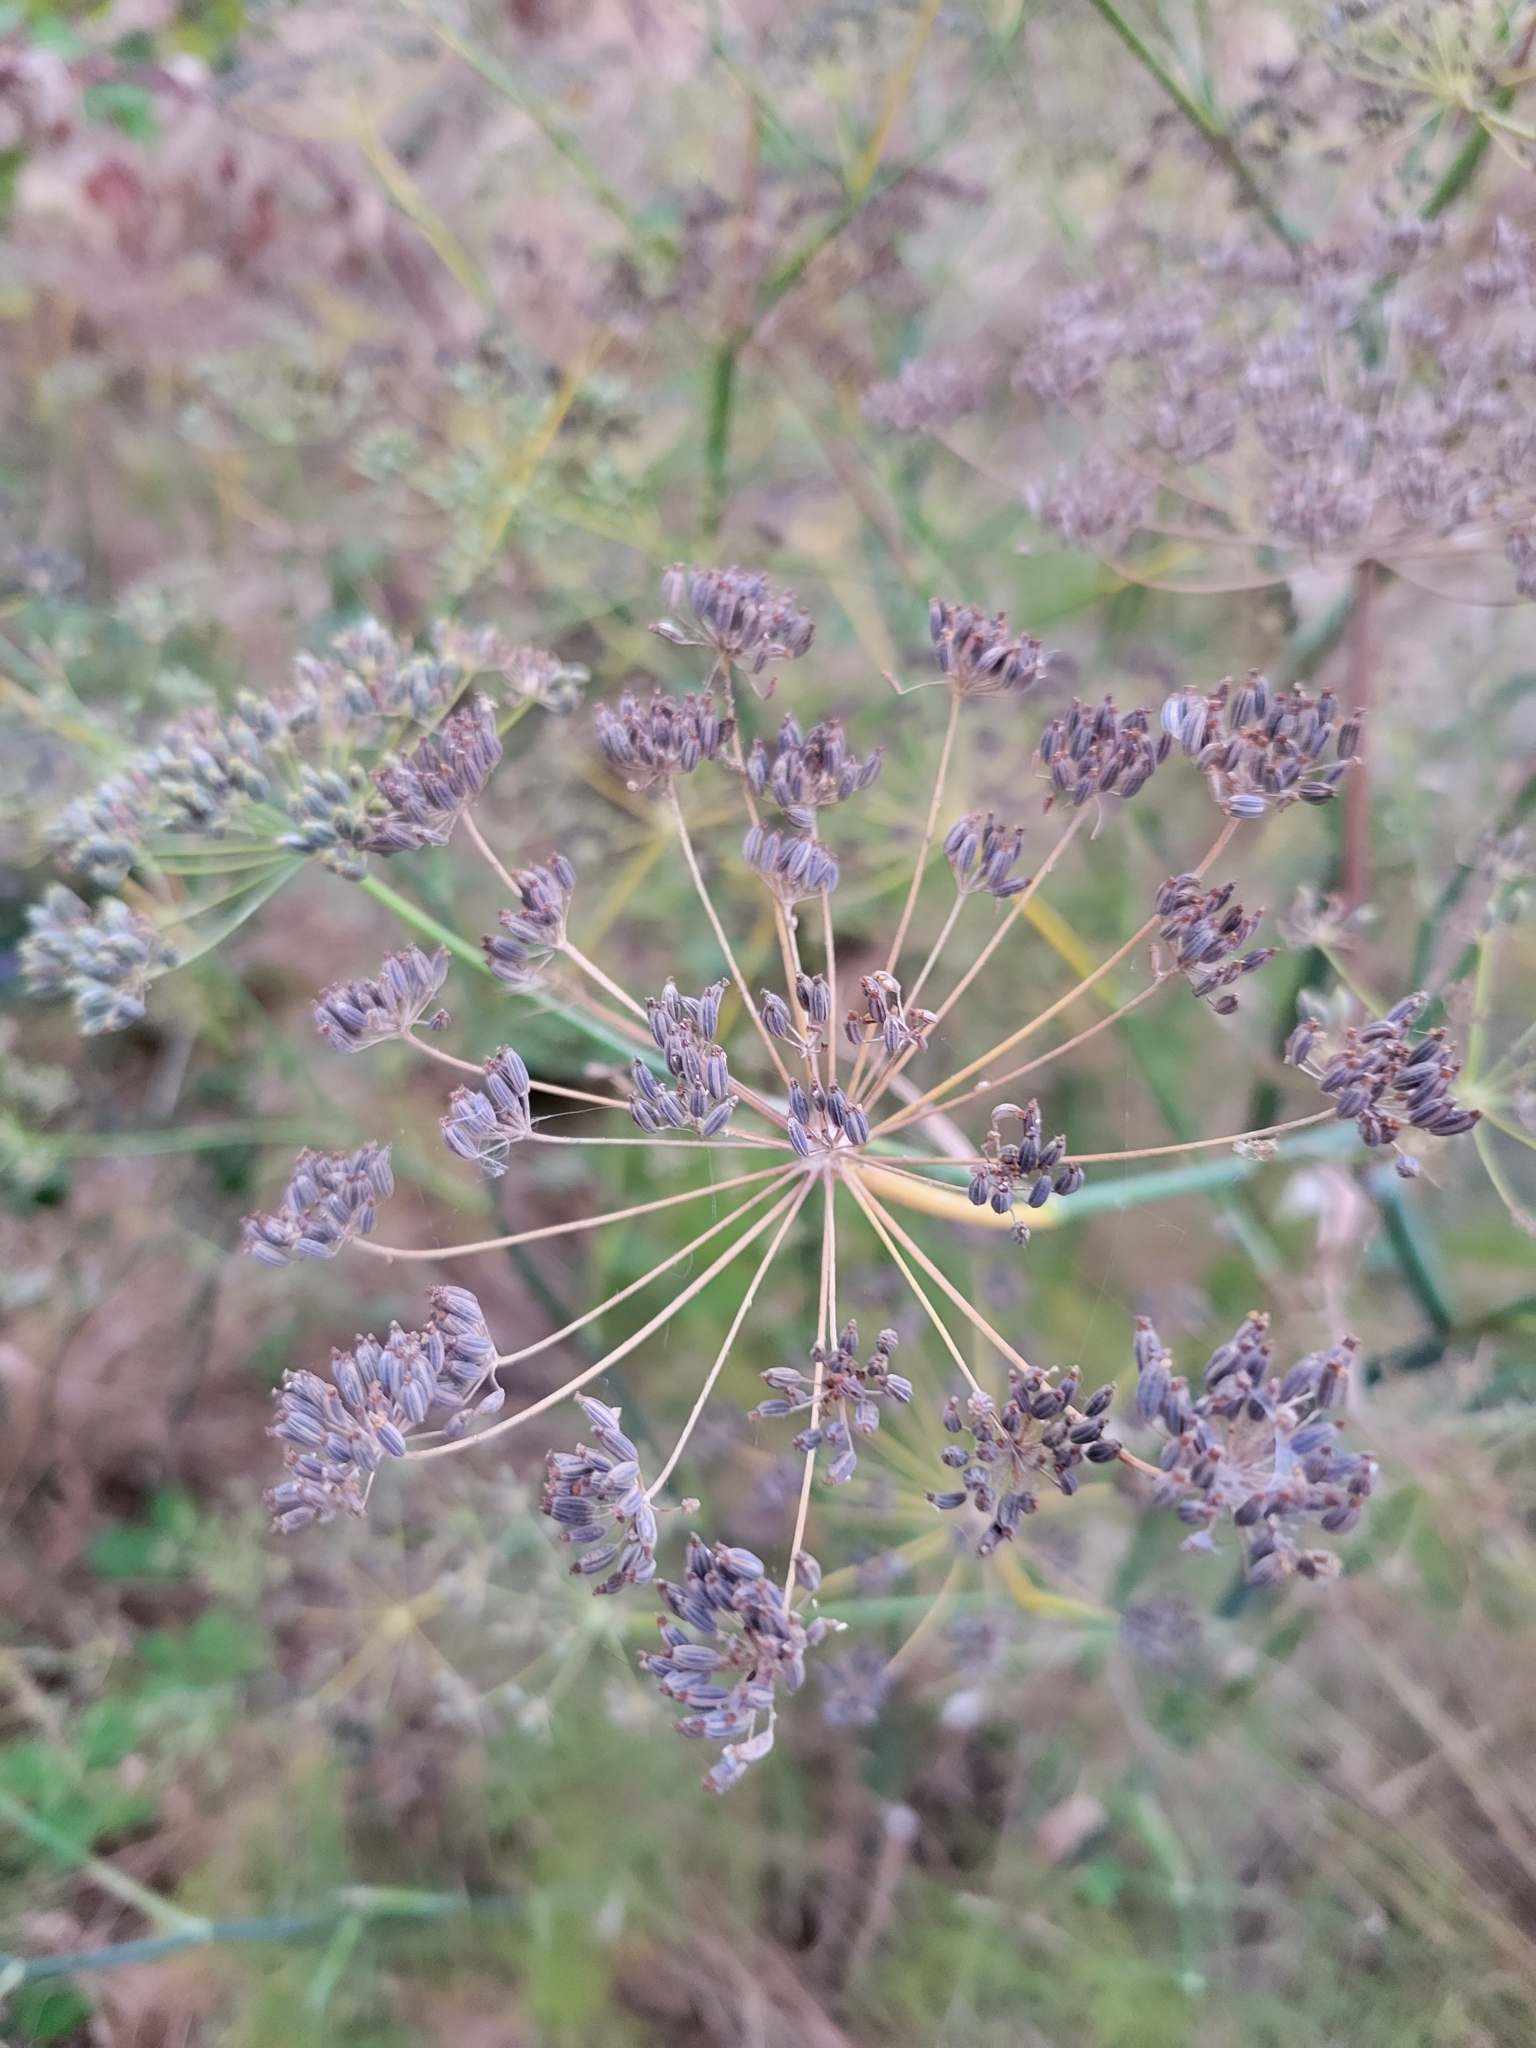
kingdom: Plantae
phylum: Tracheophyta
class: Magnoliopsida
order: Apiales
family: Apiaceae
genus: Foeniculum
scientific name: Foeniculum vulgare
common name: Fennel
